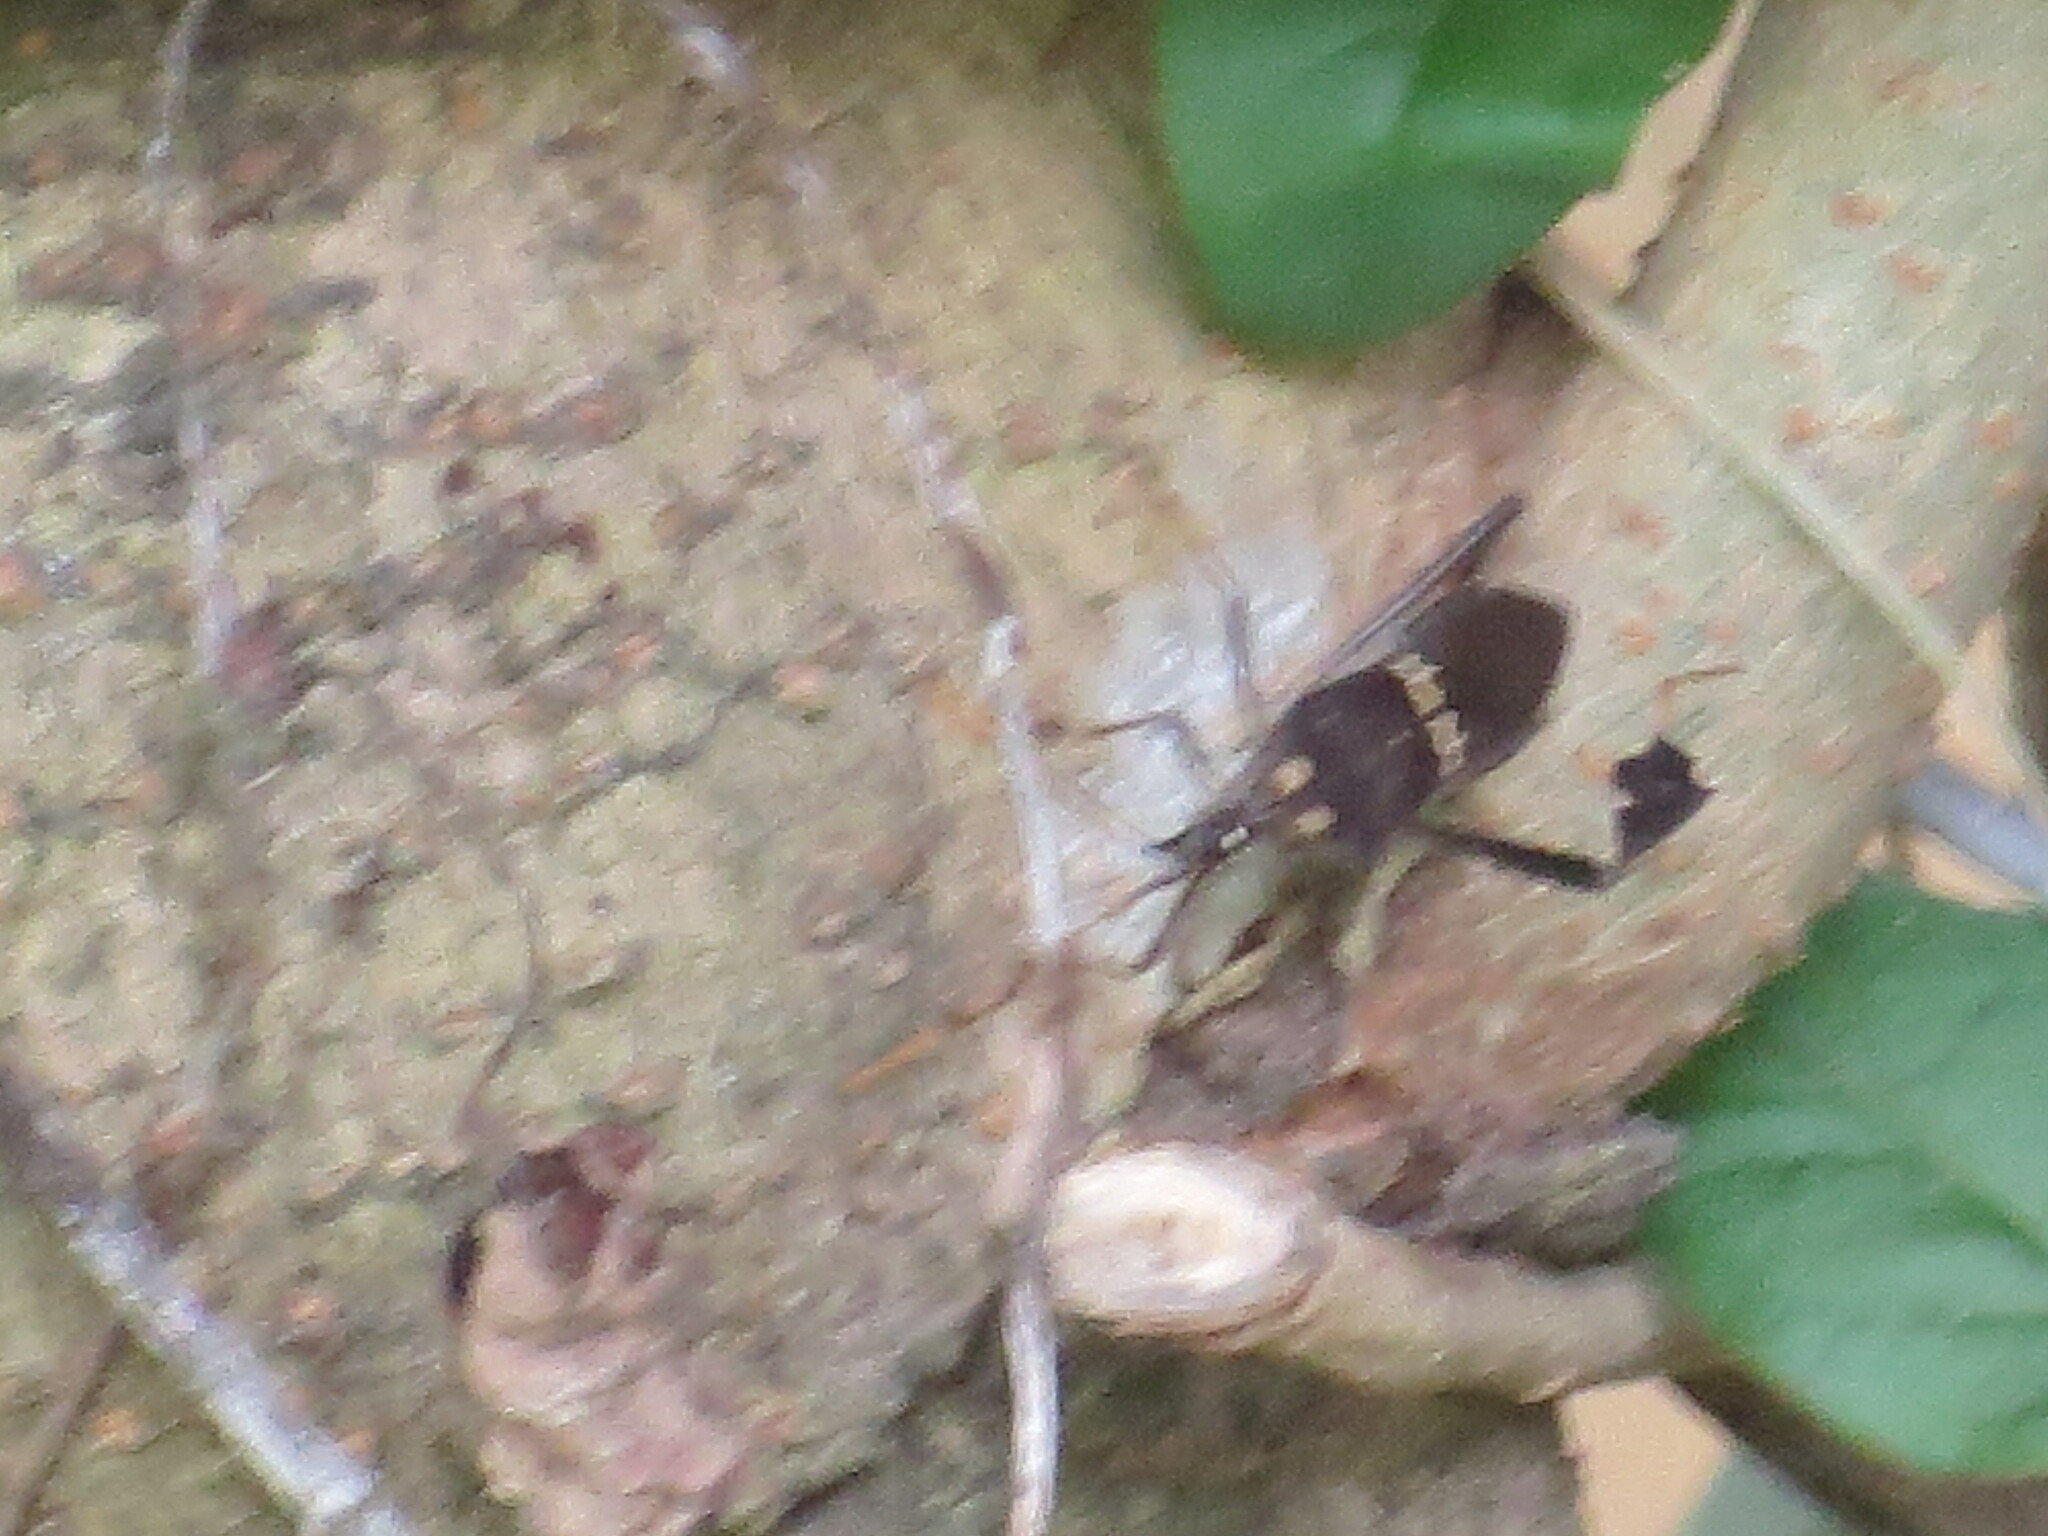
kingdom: Animalia
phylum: Arthropoda
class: Insecta
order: Hemiptera
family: Coreidae
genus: Leptoglossus
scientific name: Leptoglossus zonatus
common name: Large-legged bug
